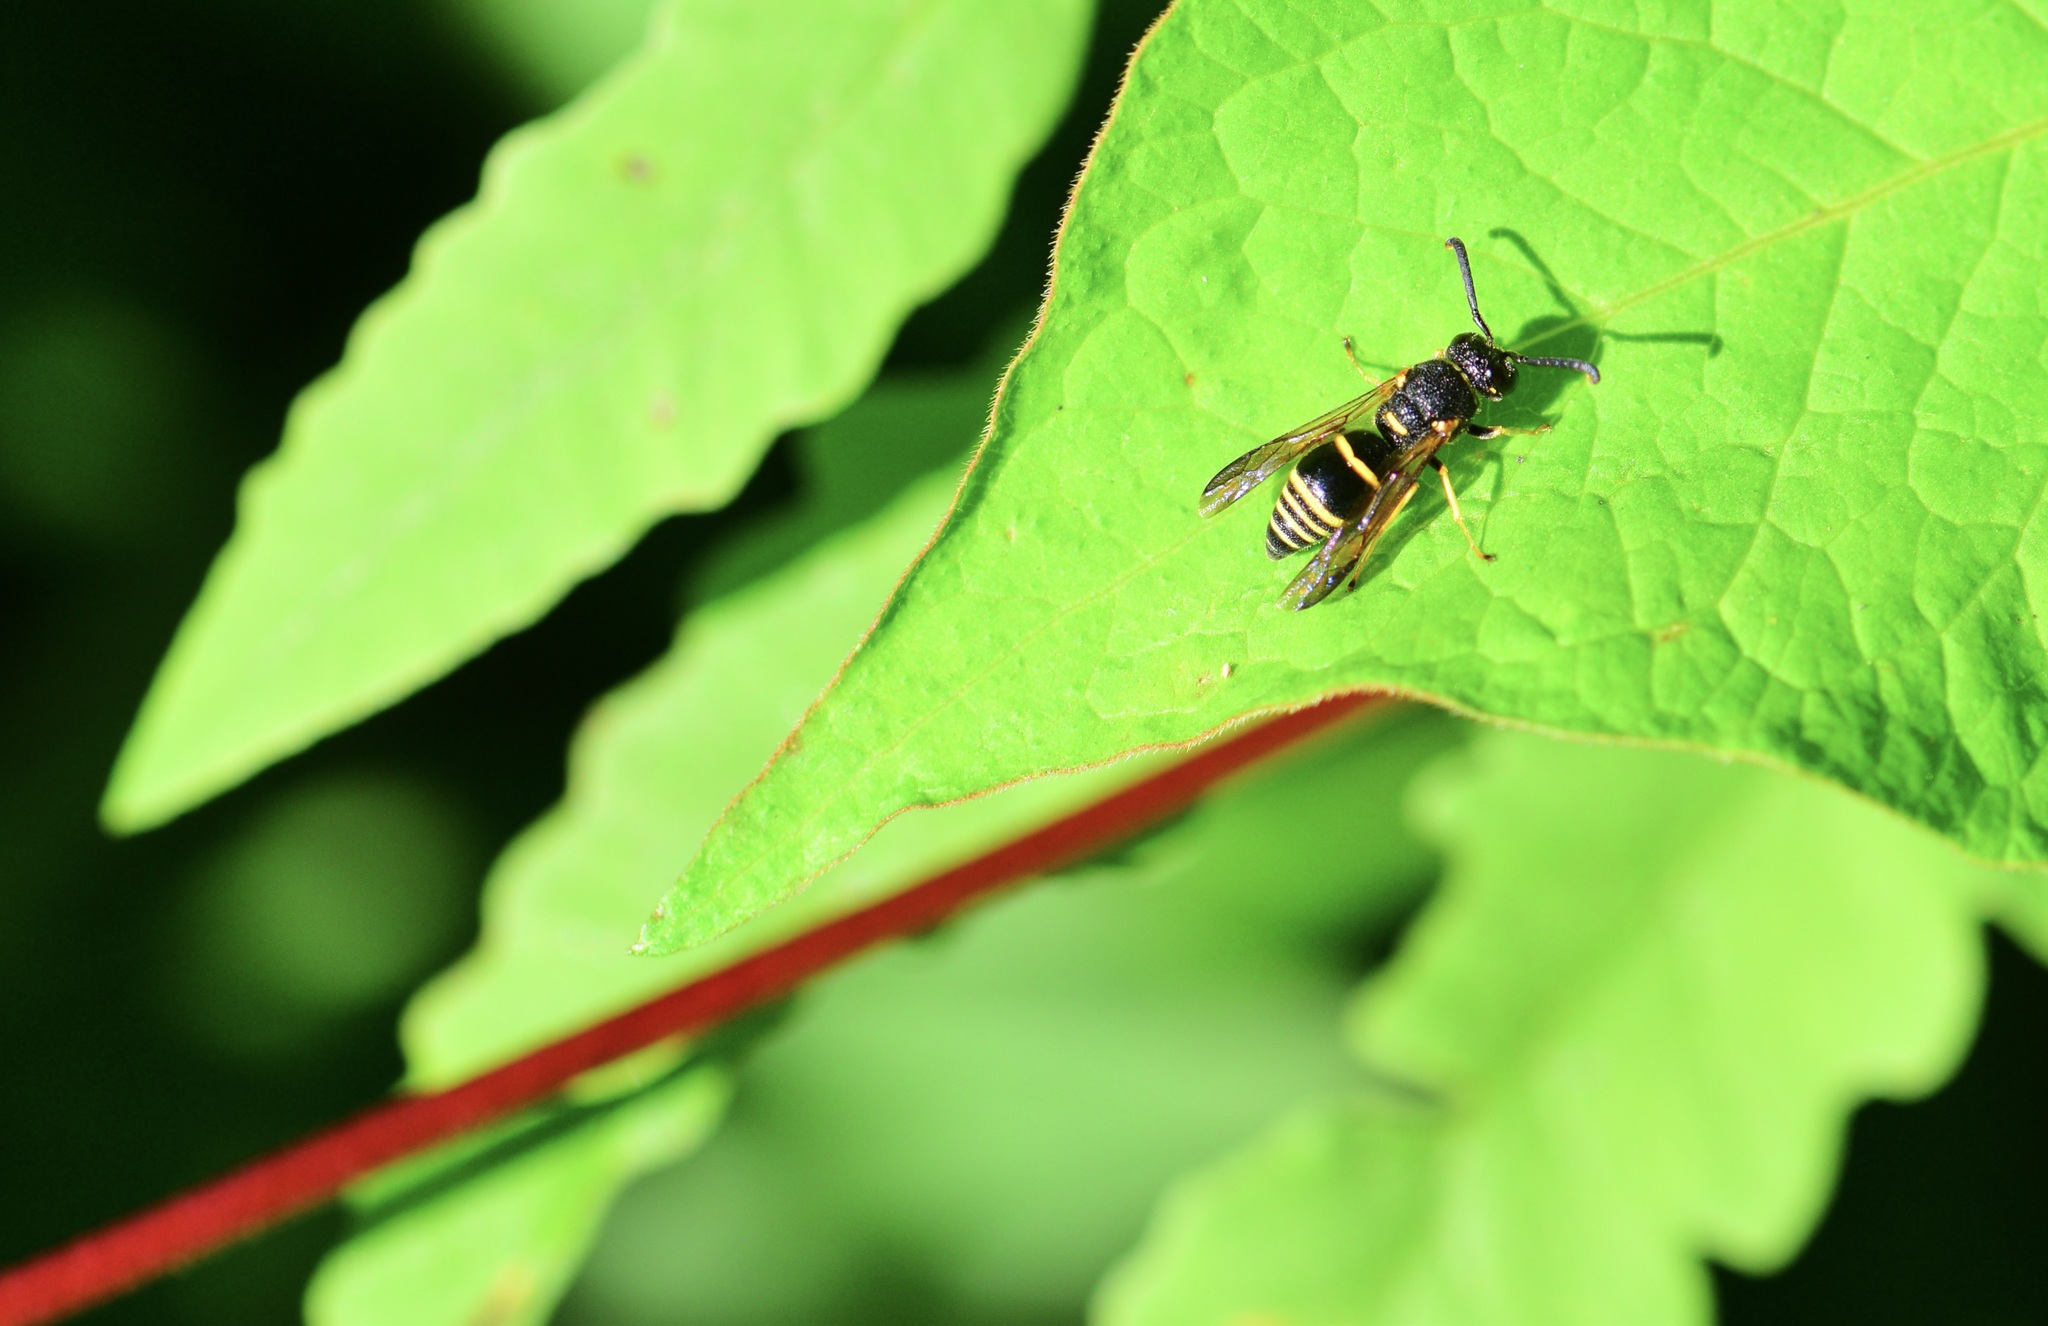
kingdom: Animalia
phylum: Arthropoda
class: Insecta
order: Hymenoptera
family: Eumenidae
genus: Euodynerus
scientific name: Euodynerus foraminatus
